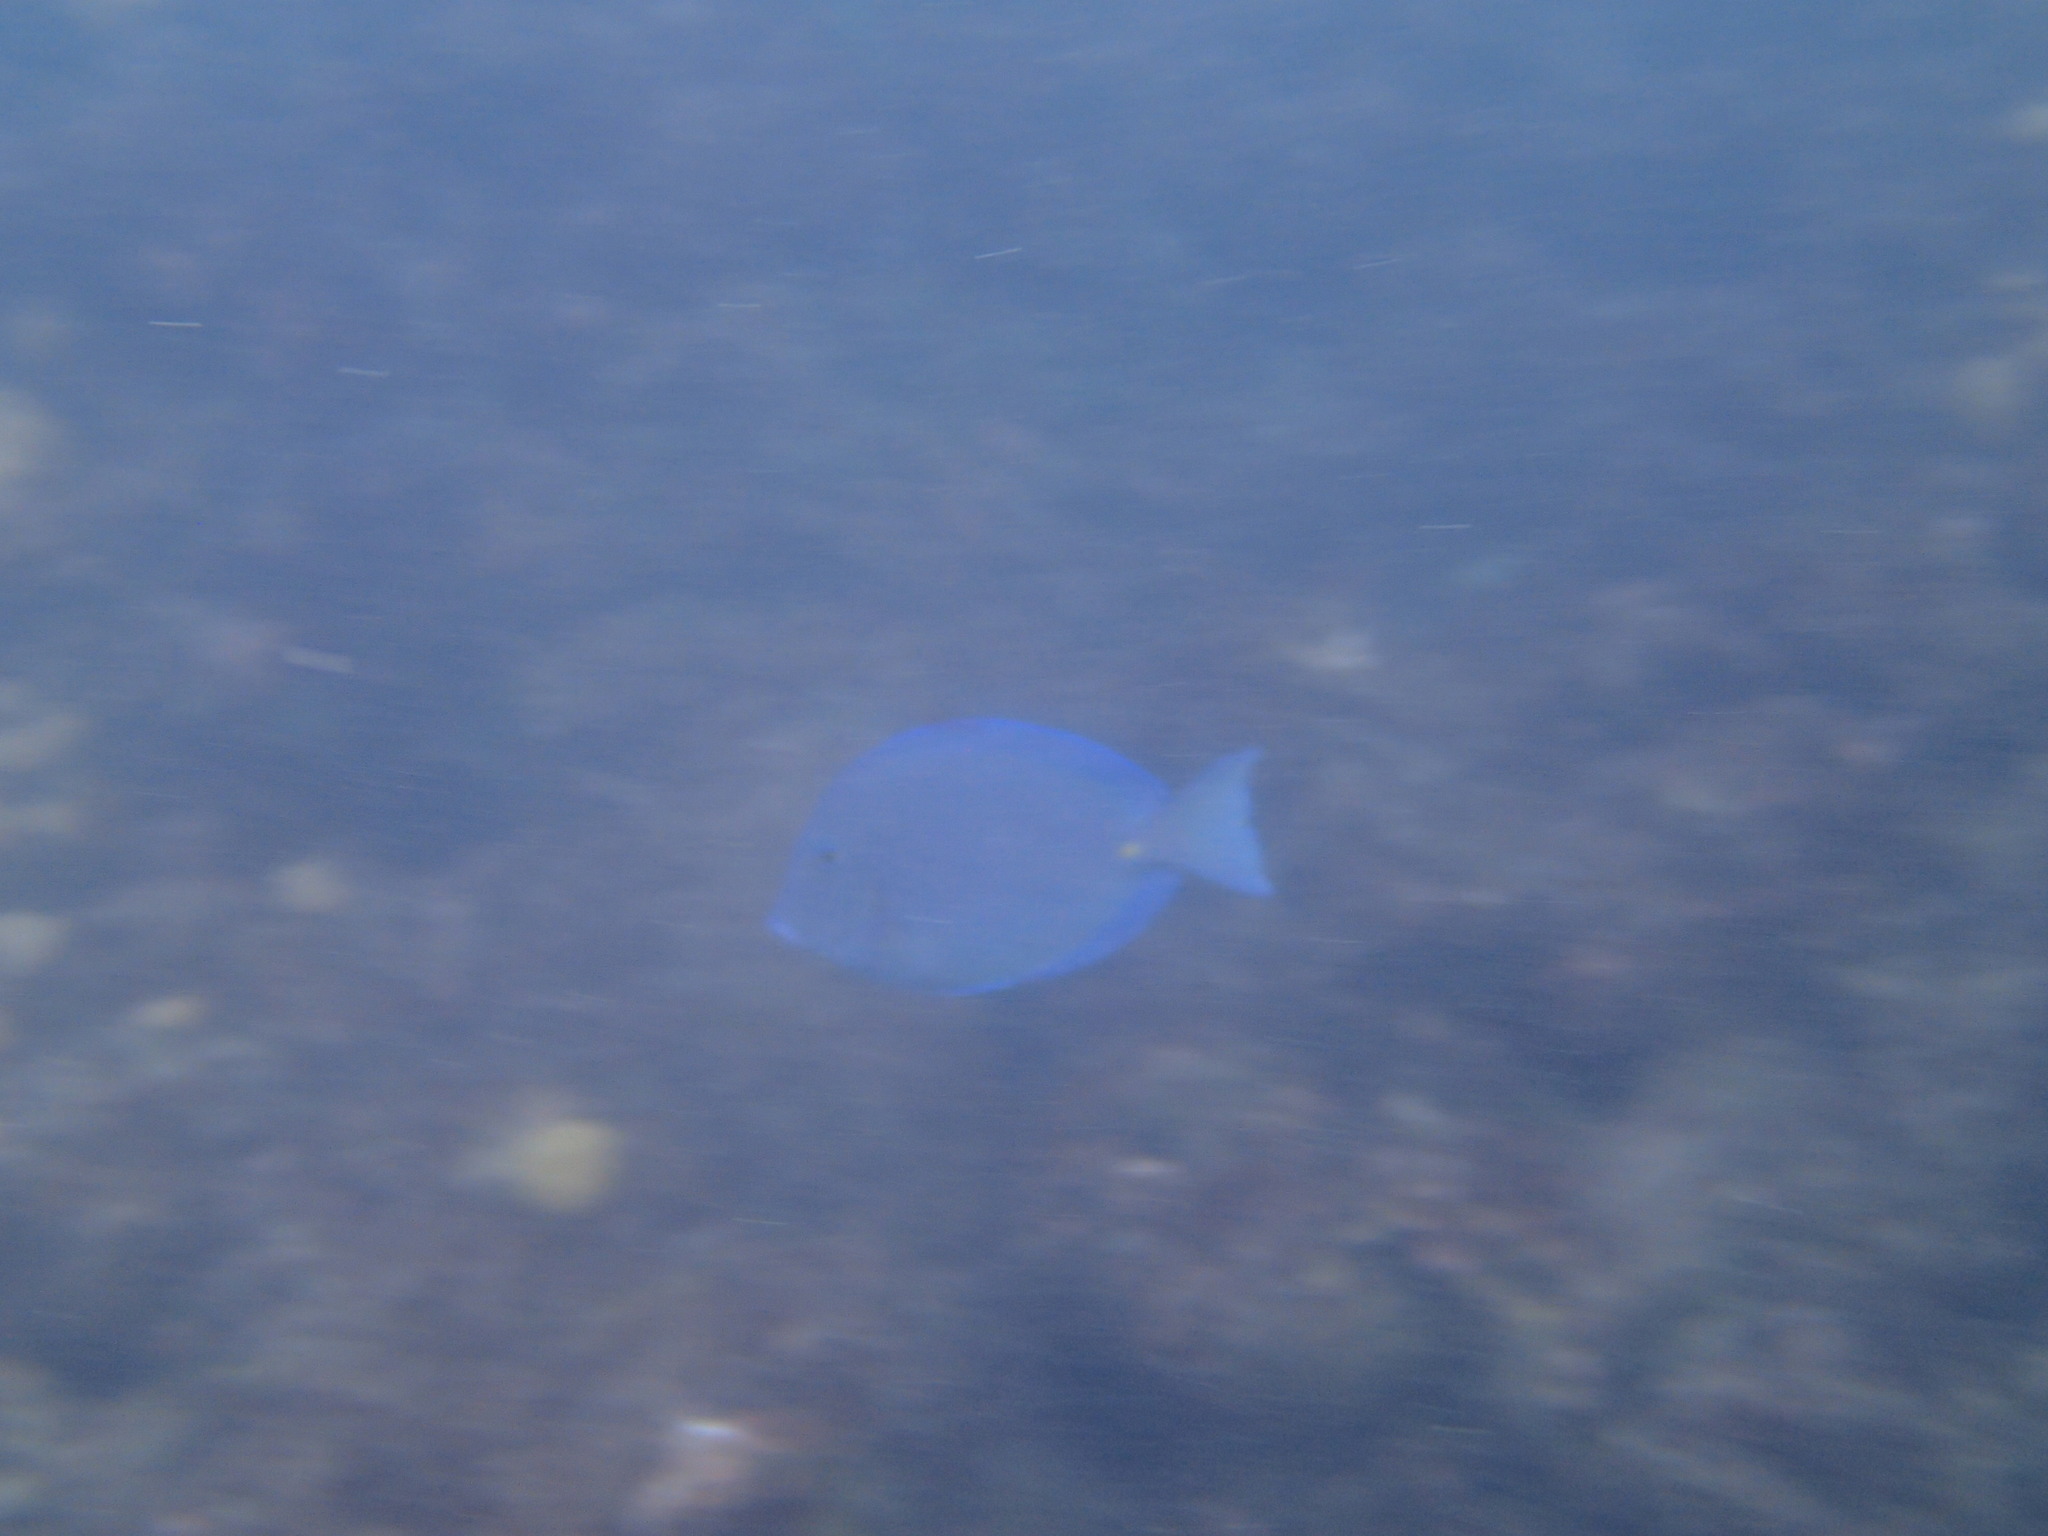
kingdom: Animalia
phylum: Chordata
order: Perciformes
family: Acanthuridae
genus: Acanthurus
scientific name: Acanthurus coeruleus
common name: Blue tang
